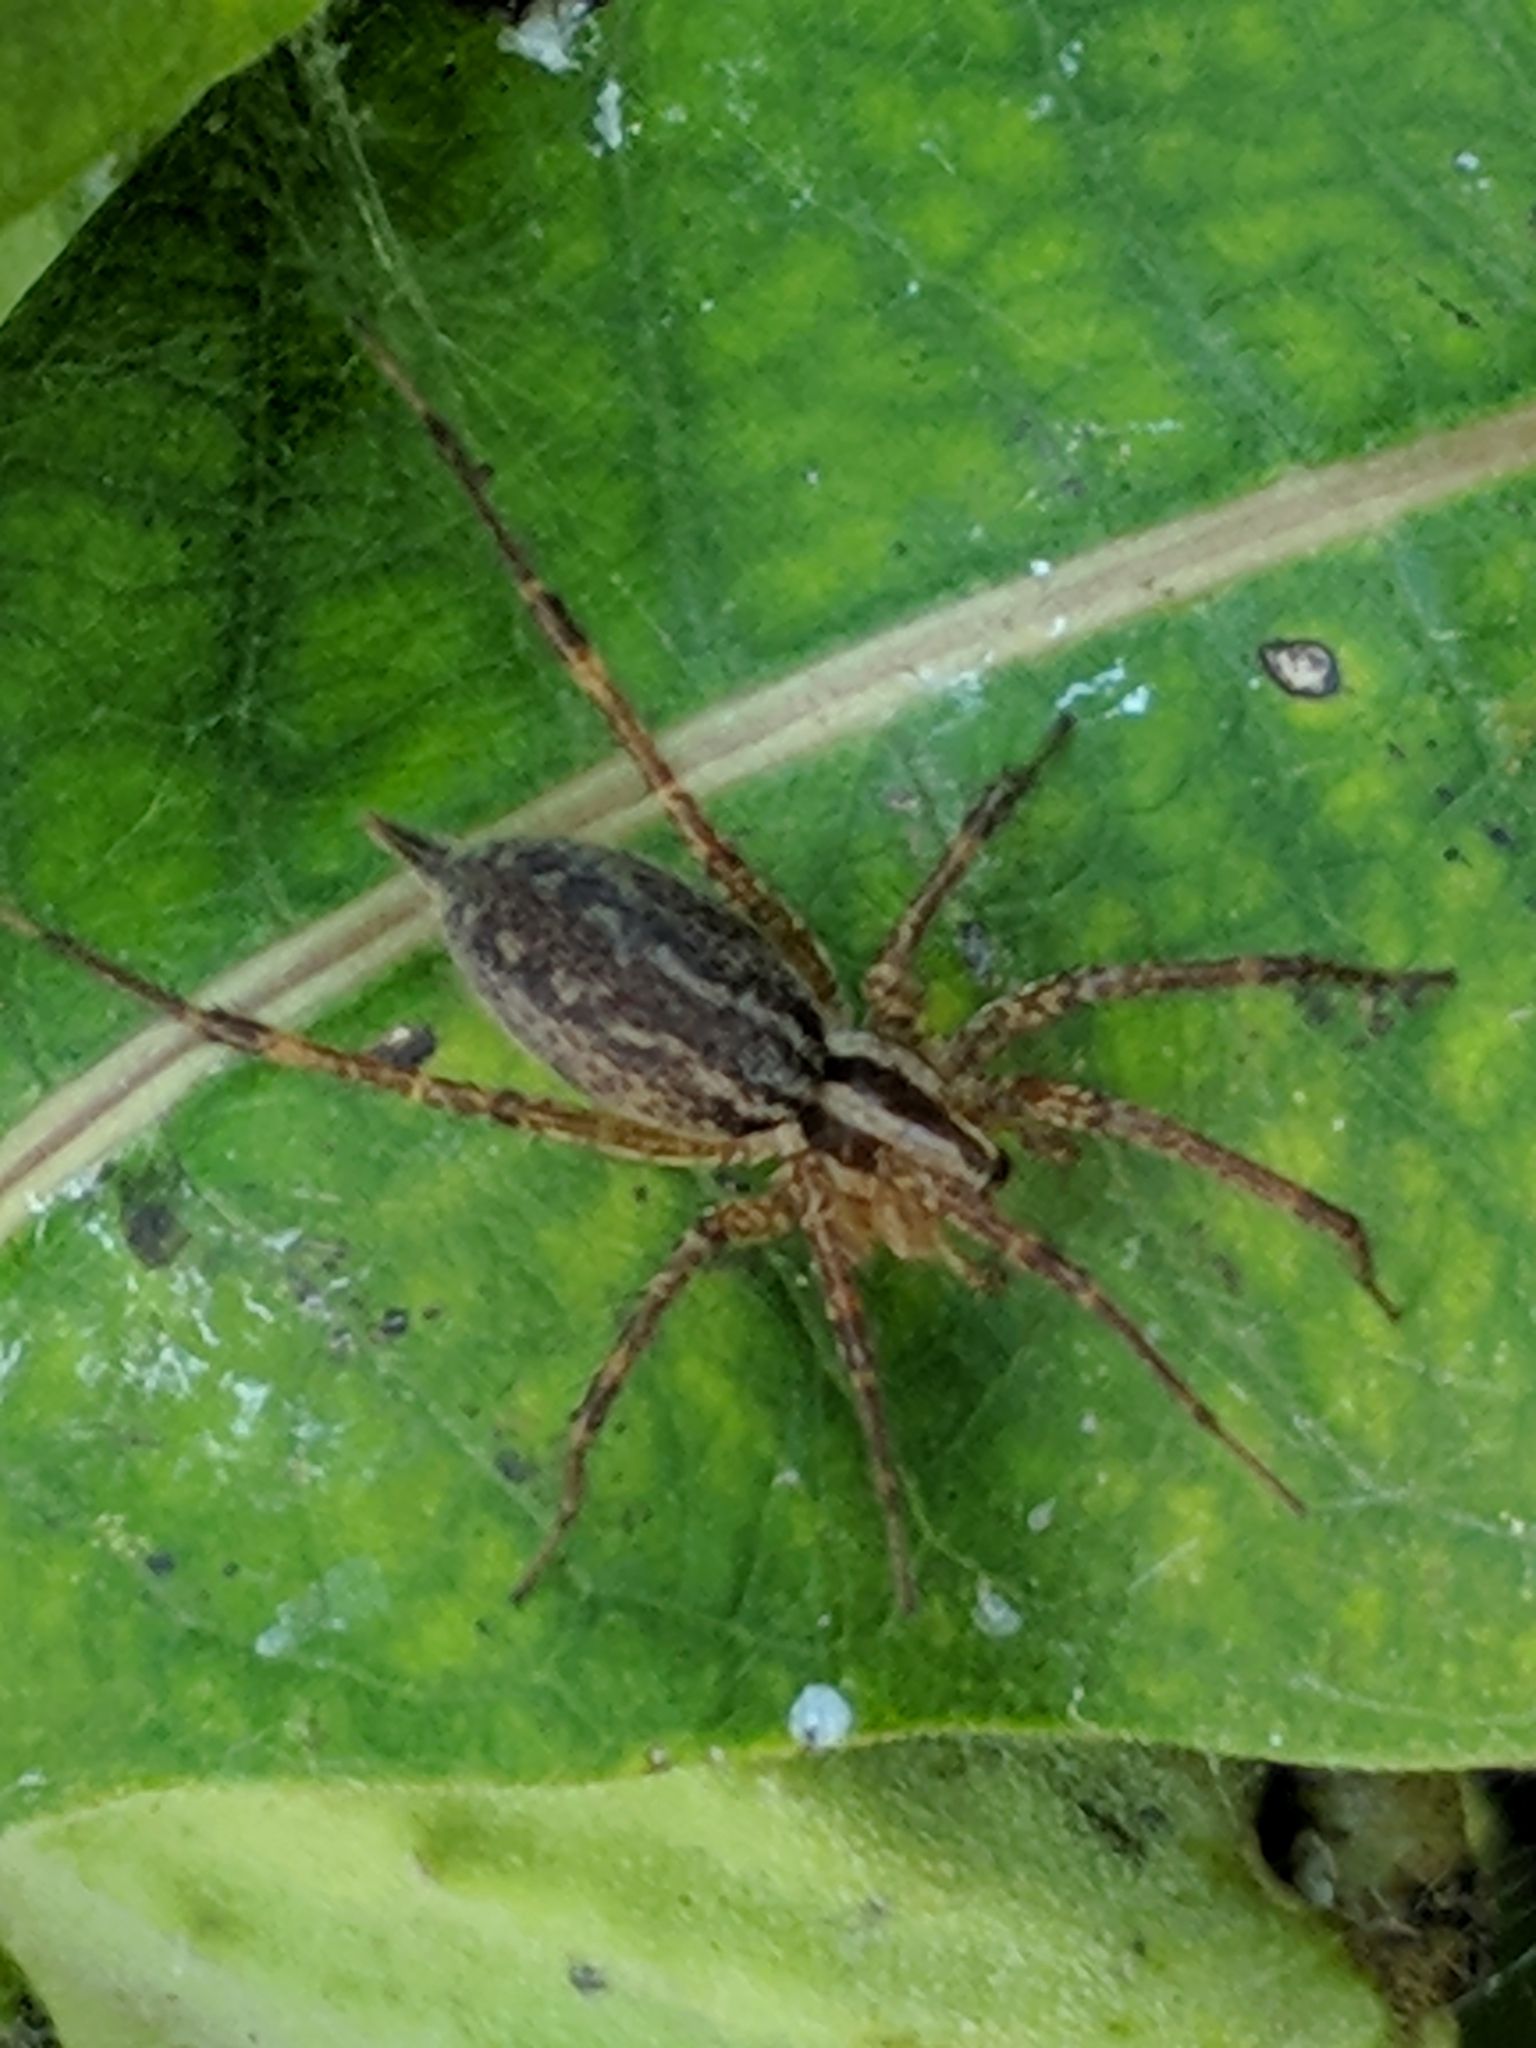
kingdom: Animalia
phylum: Arthropoda
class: Arachnida
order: Araneae
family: Agelenidae
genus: Agelenopsis
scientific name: Agelenopsis
